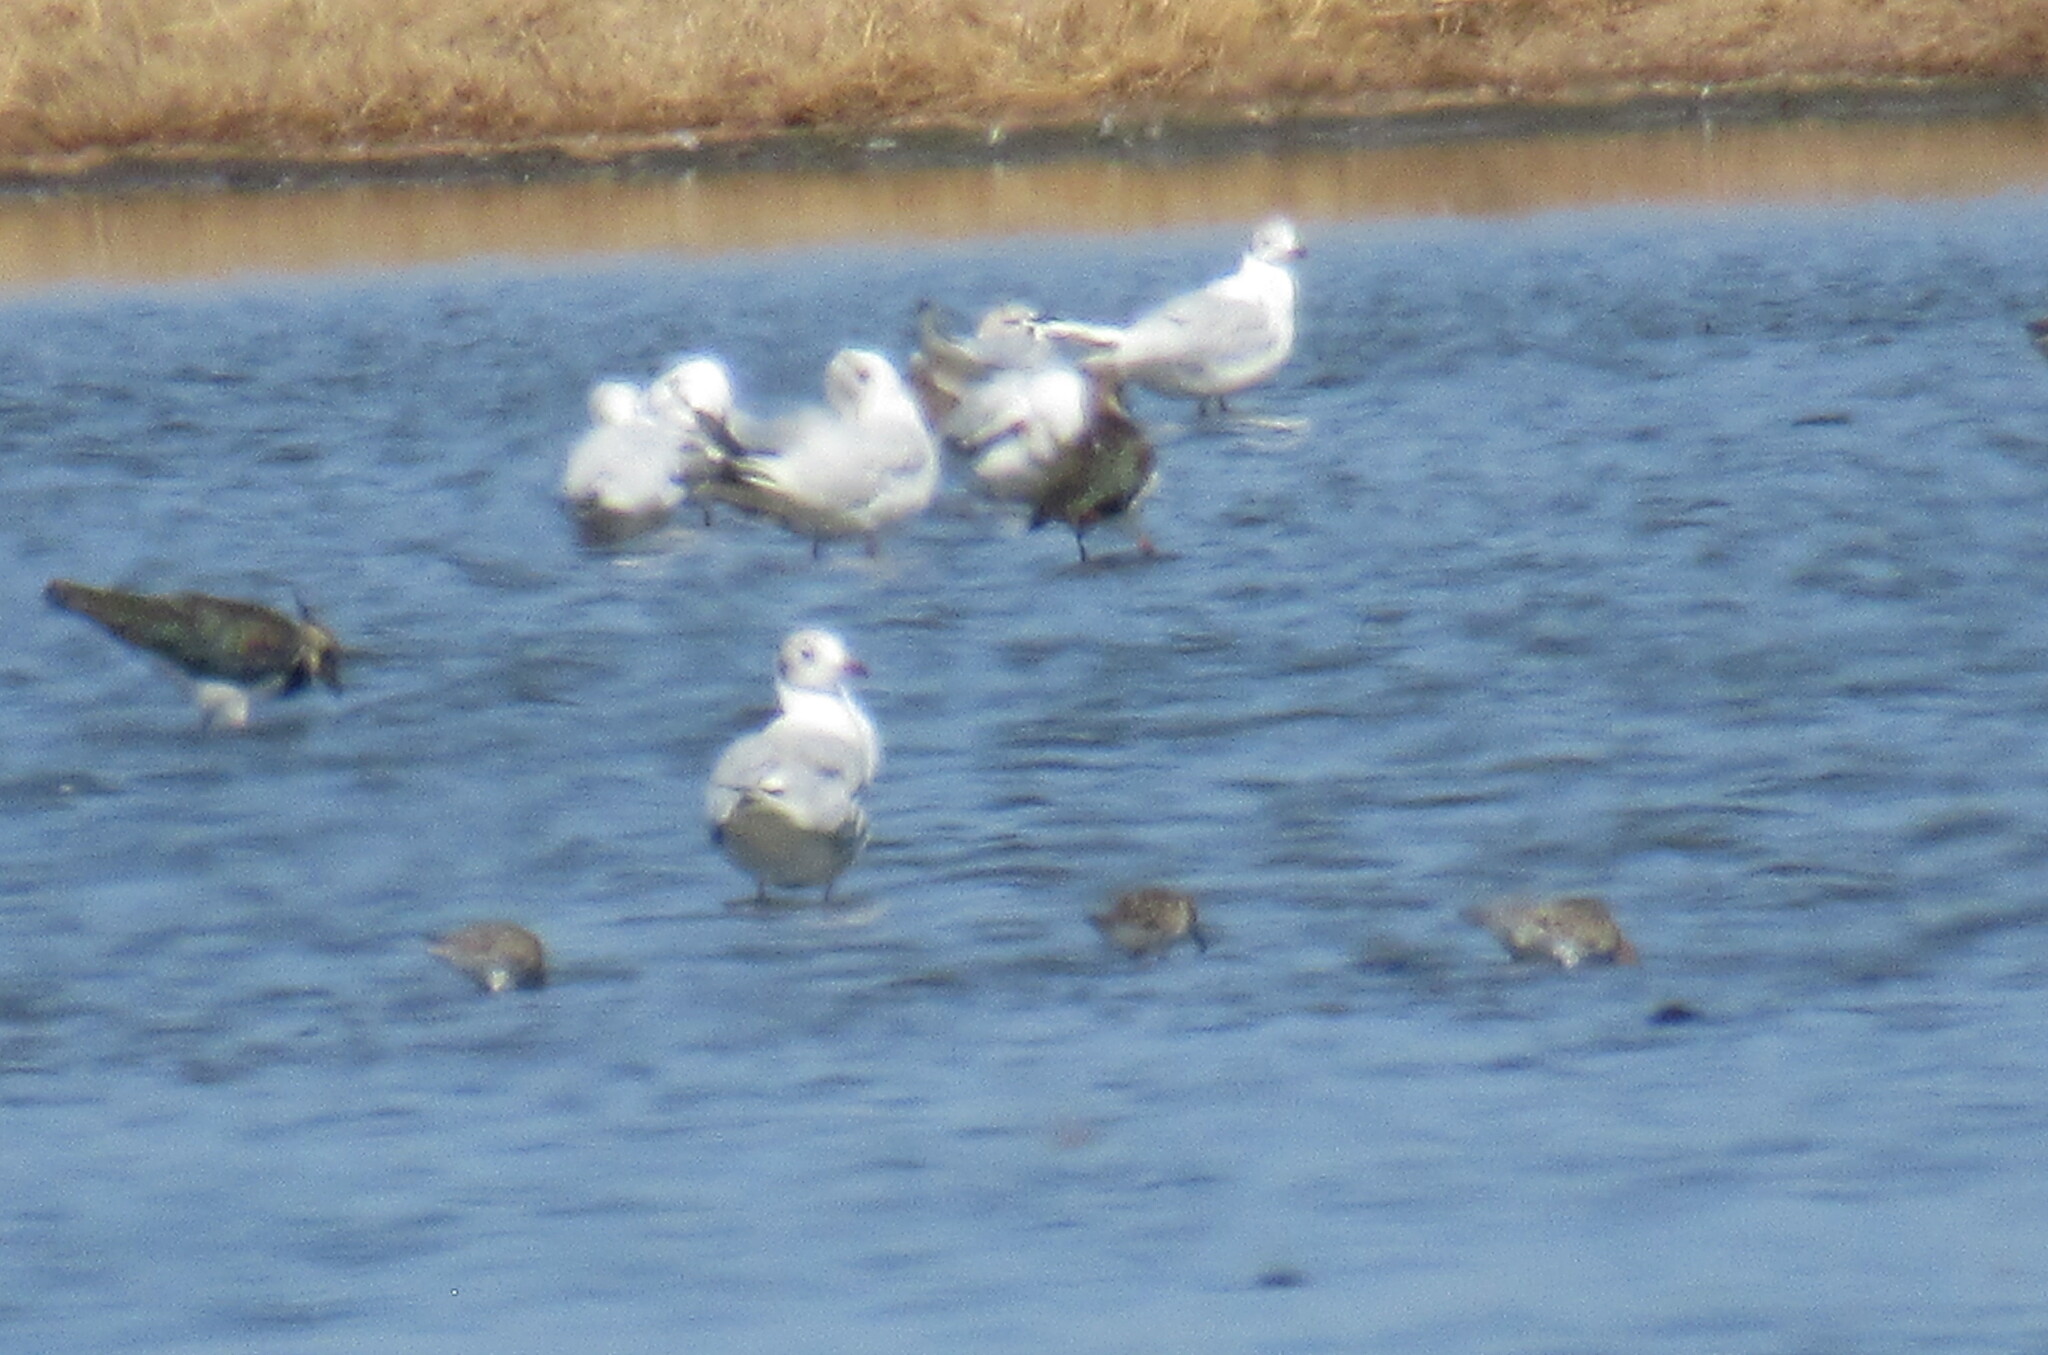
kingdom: Animalia
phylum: Chordata
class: Aves
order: Charadriiformes
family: Laridae
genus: Chroicocephalus
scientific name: Chroicocephalus ridibundus
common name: Black-headed gull
